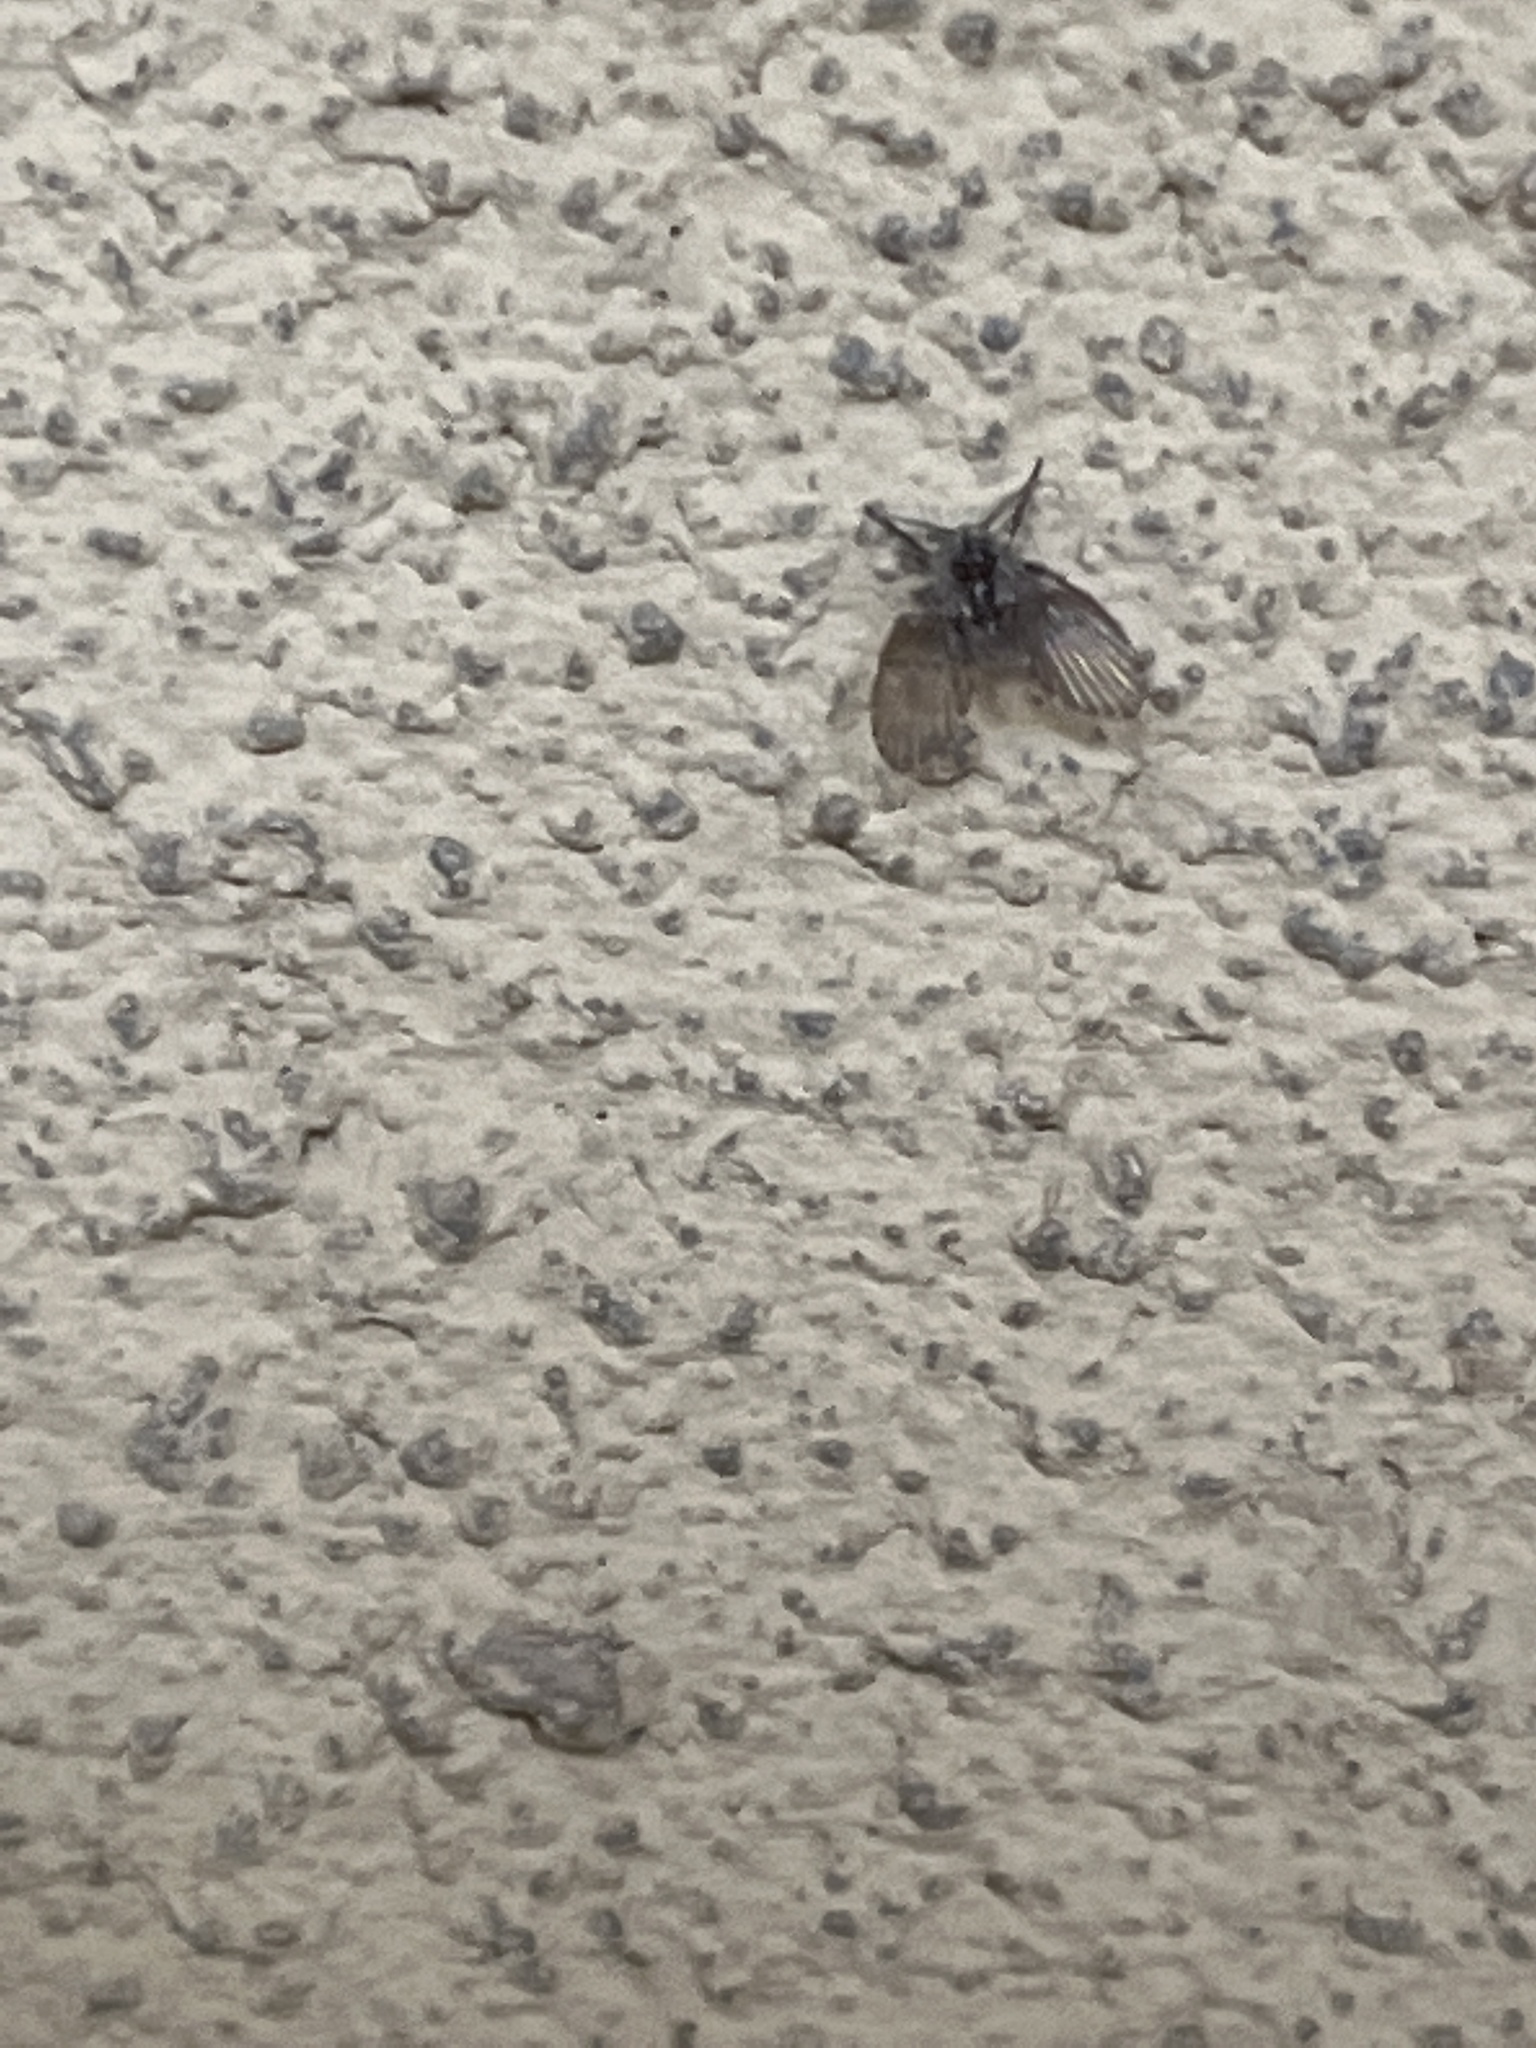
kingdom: Animalia
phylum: Arthropoda
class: Insecta
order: Diptera
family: Psychodidae
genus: Clogmia
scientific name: Clogmia albipunctatus
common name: White-spotted moth fly
